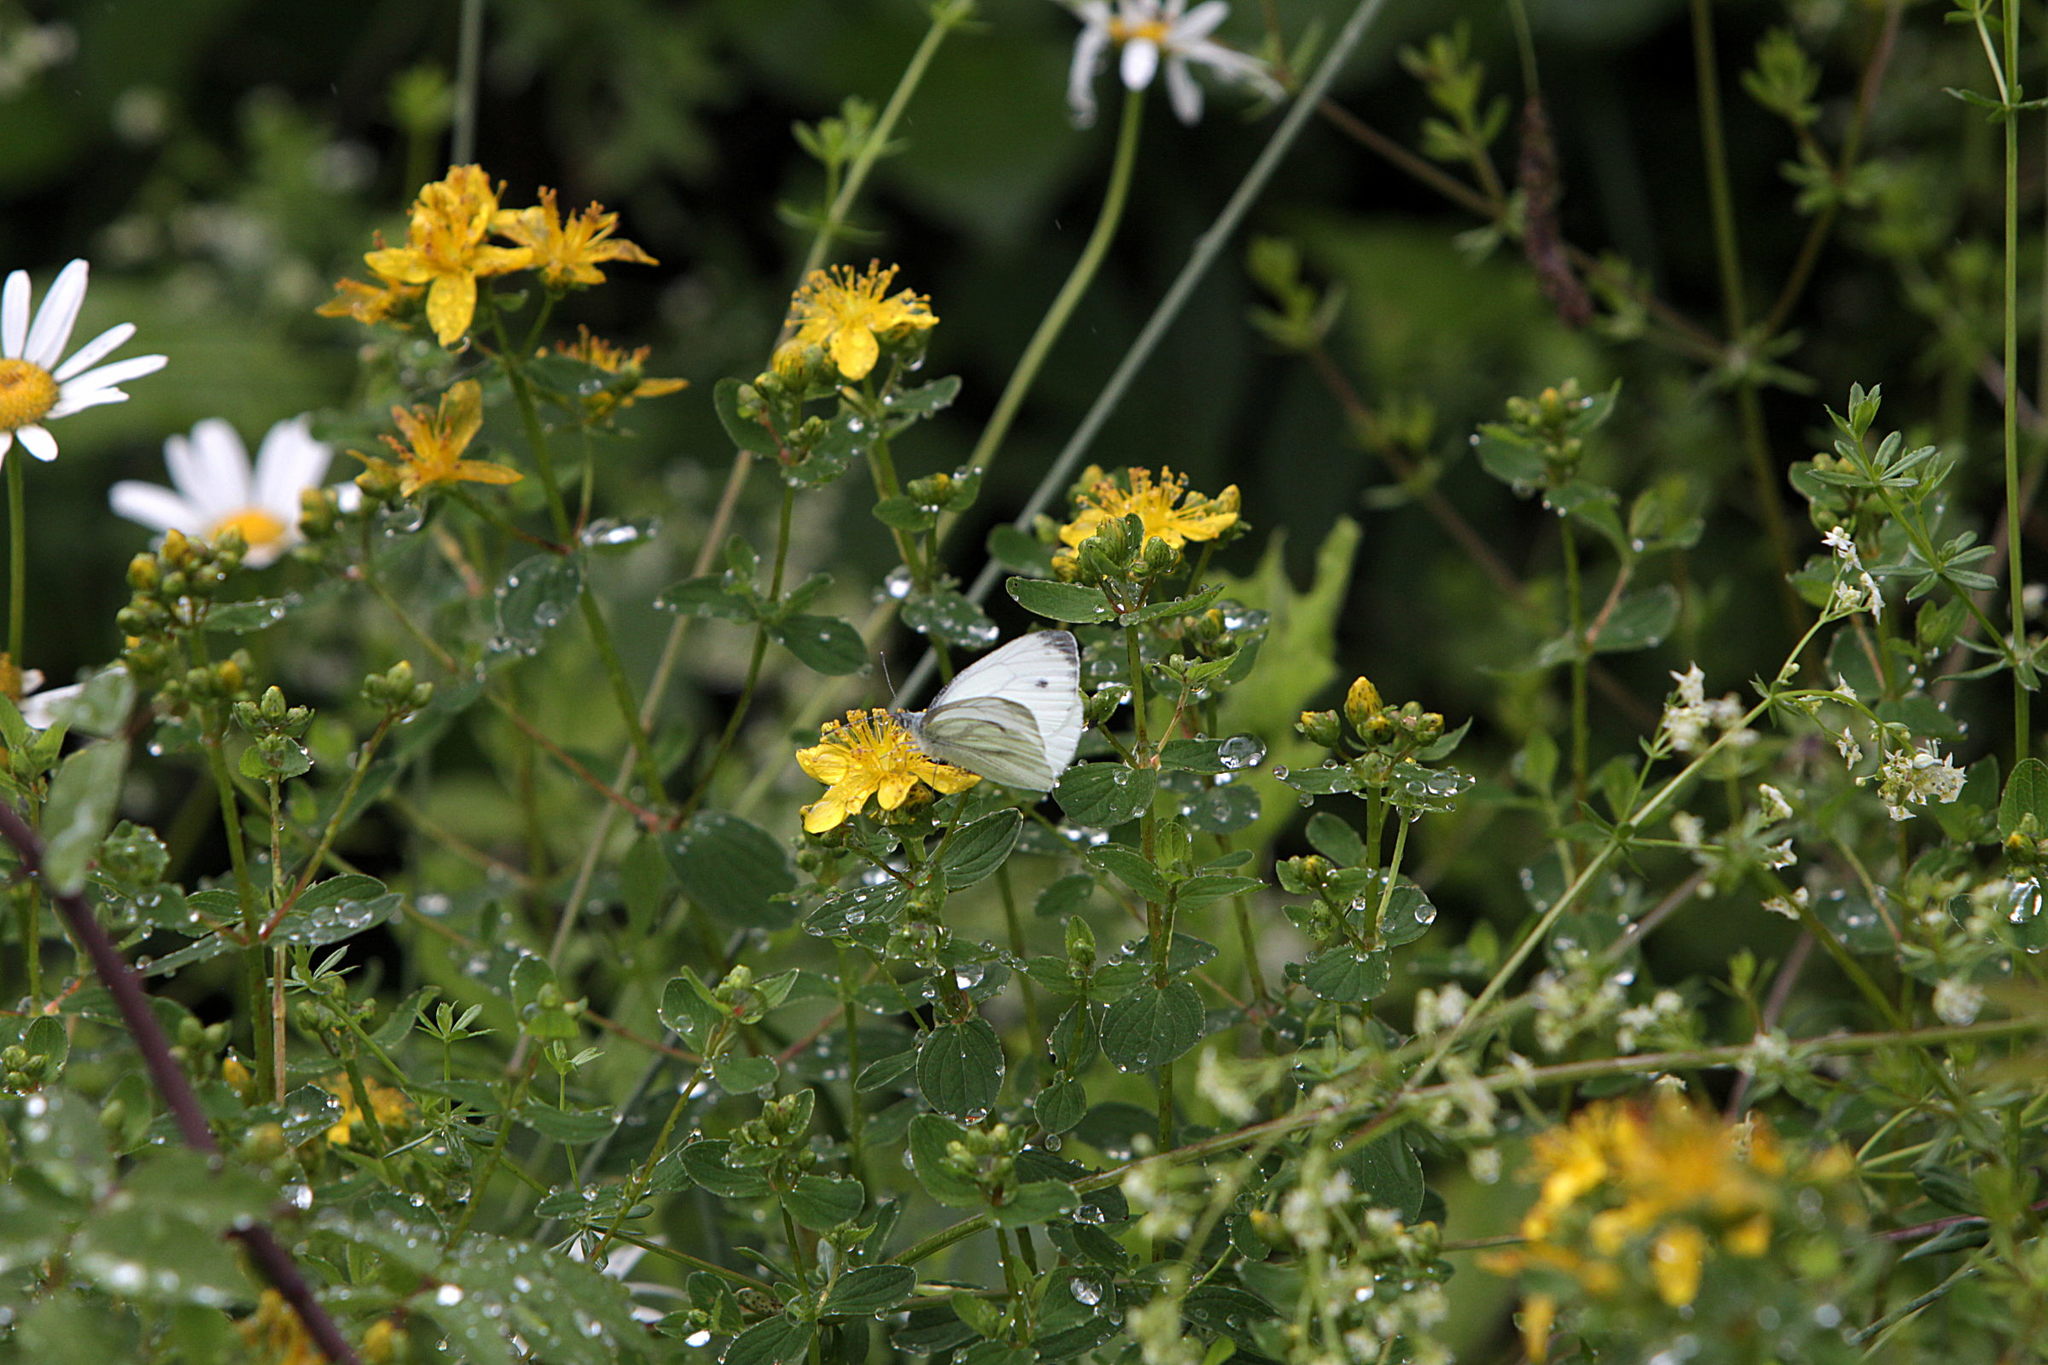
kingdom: Animalia
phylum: Arthropoda
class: Insecta
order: Lepidoptera
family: Pieridae
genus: Pieris
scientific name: Pieris napi
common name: Green-veined white
